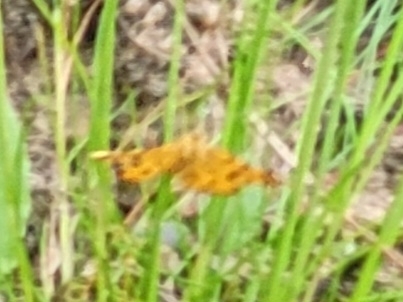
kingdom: Animalia
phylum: Arthropoda
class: Insecta
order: Lepidoptera
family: Geometridae
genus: Pseudopanthera
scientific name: Pseudopanthera macularia
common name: Speckled yellow
